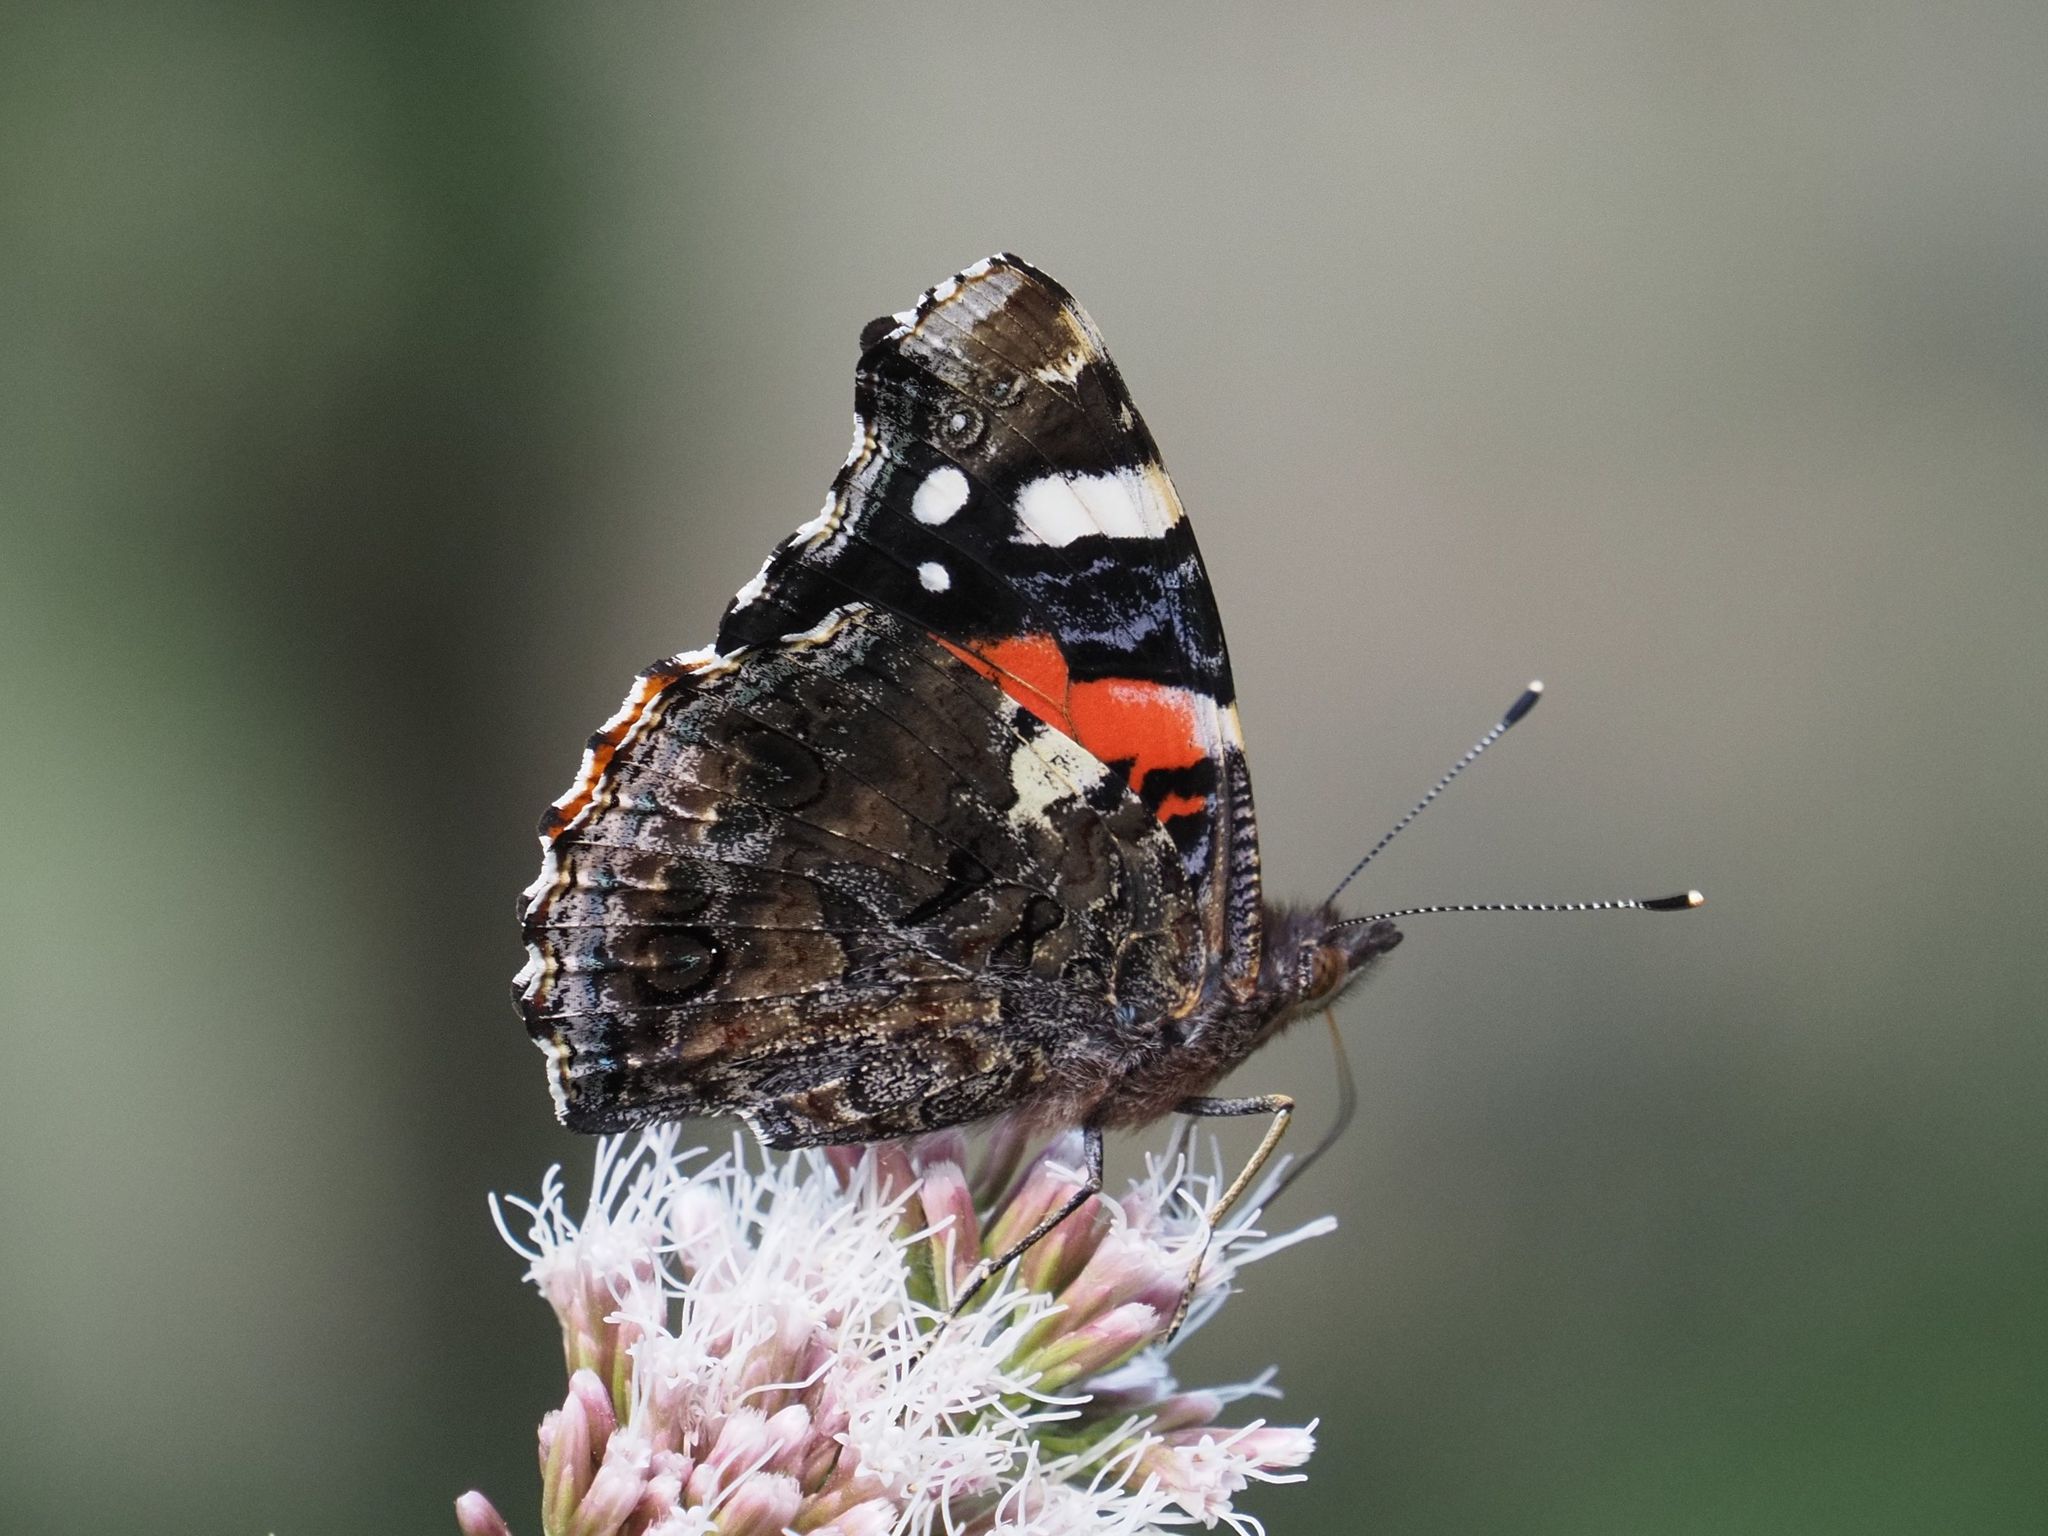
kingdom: Animalia
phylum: Arthropoda
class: Insecta
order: Lepidoptera
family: Nymphalidae
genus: Vanessa
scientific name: Vanessa atalanta
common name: Red admiral
